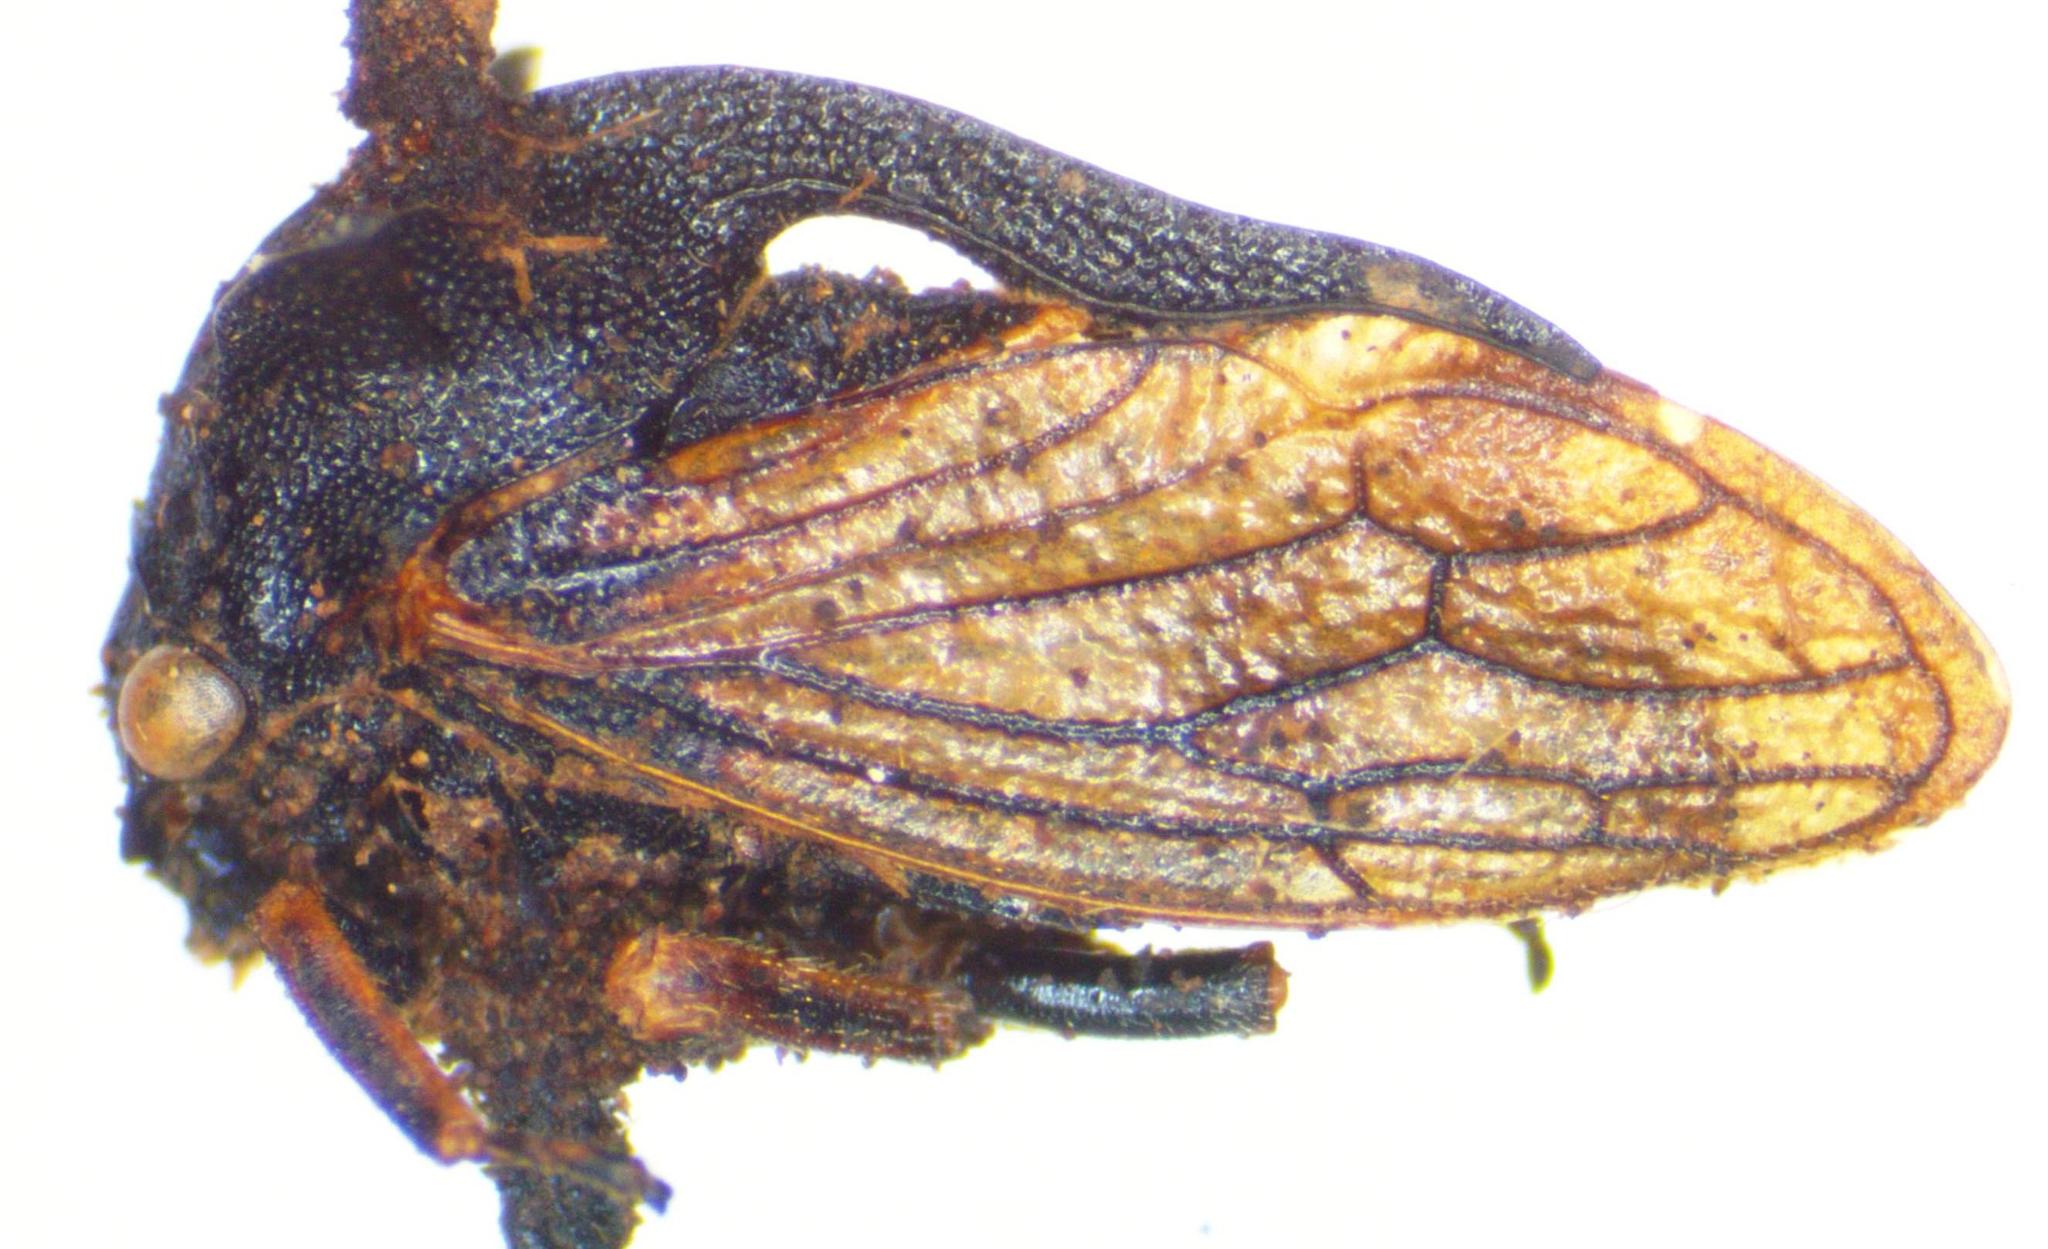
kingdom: Animalia
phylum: Arthropoda
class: Insecta
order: Hemiptera
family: Membracidae
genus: Centrotus
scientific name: Centrotus cornuta
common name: Treehopper
